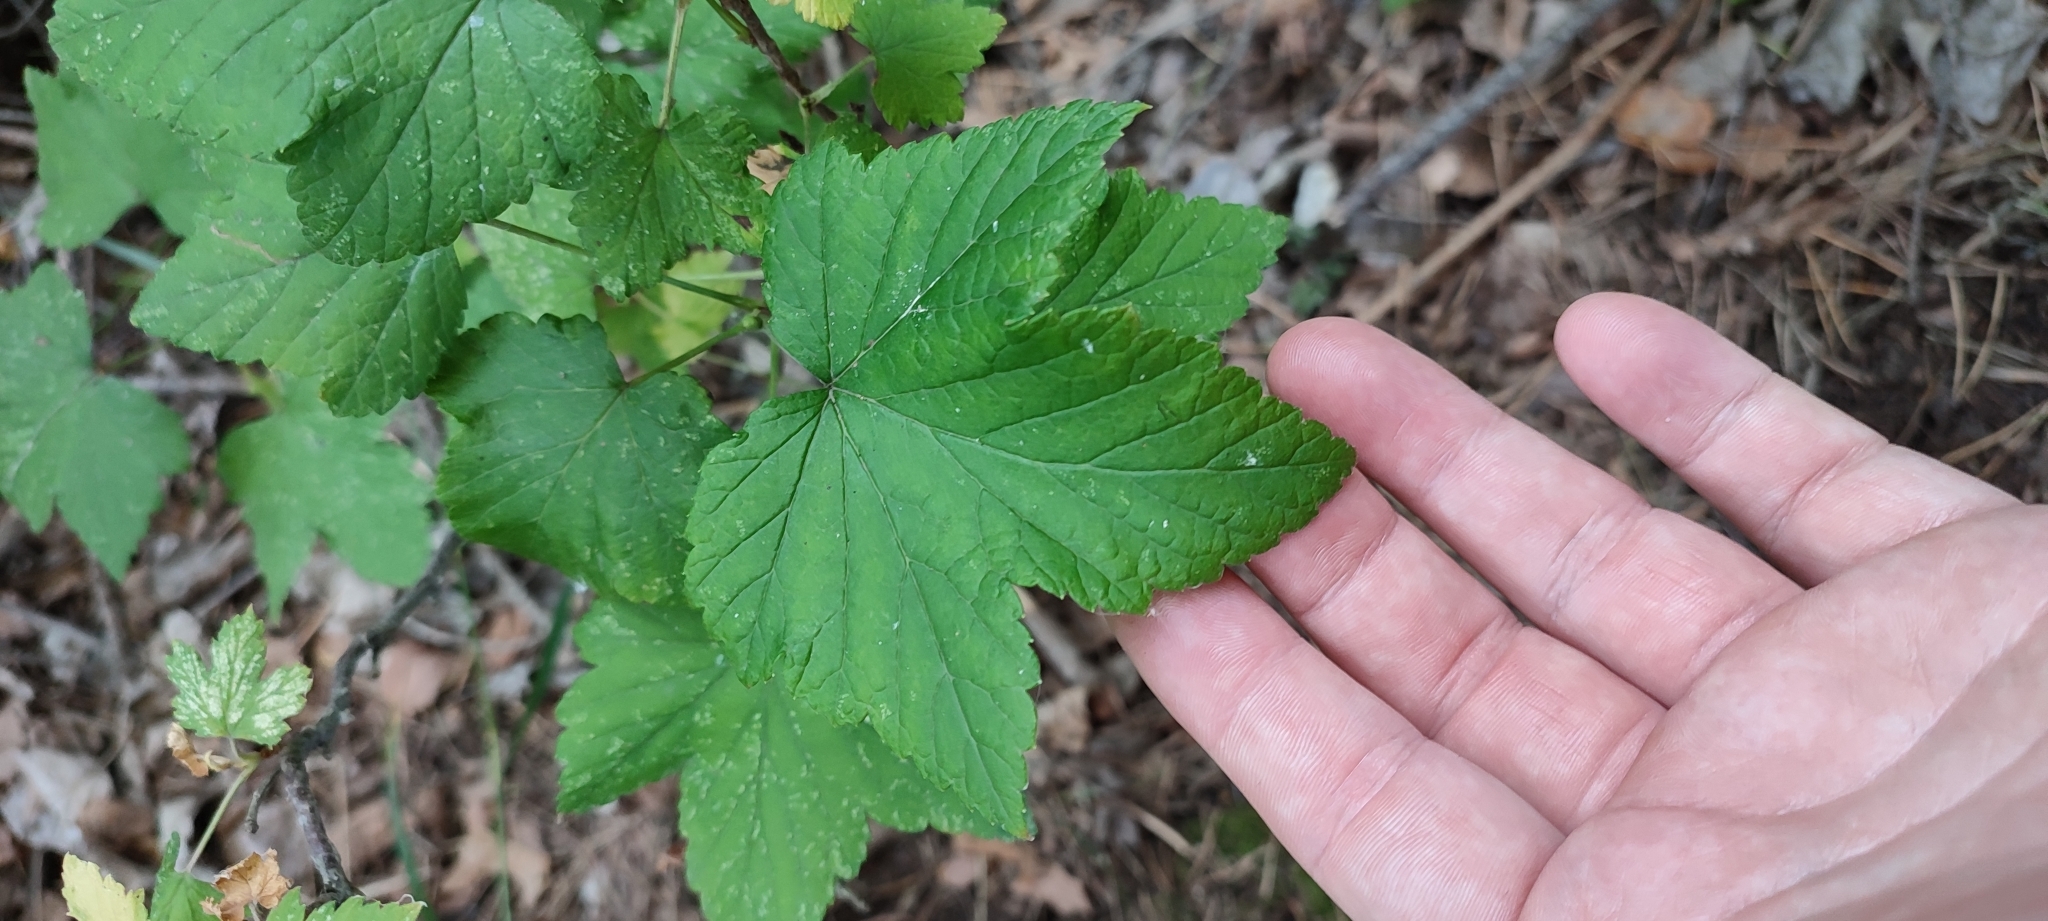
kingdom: Plantae
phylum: Tracheophyta
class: Magnoliopsida
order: Saxifragales
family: Grossulariaceae
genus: Ribes
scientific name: Ribes nigrum
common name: Black currant
